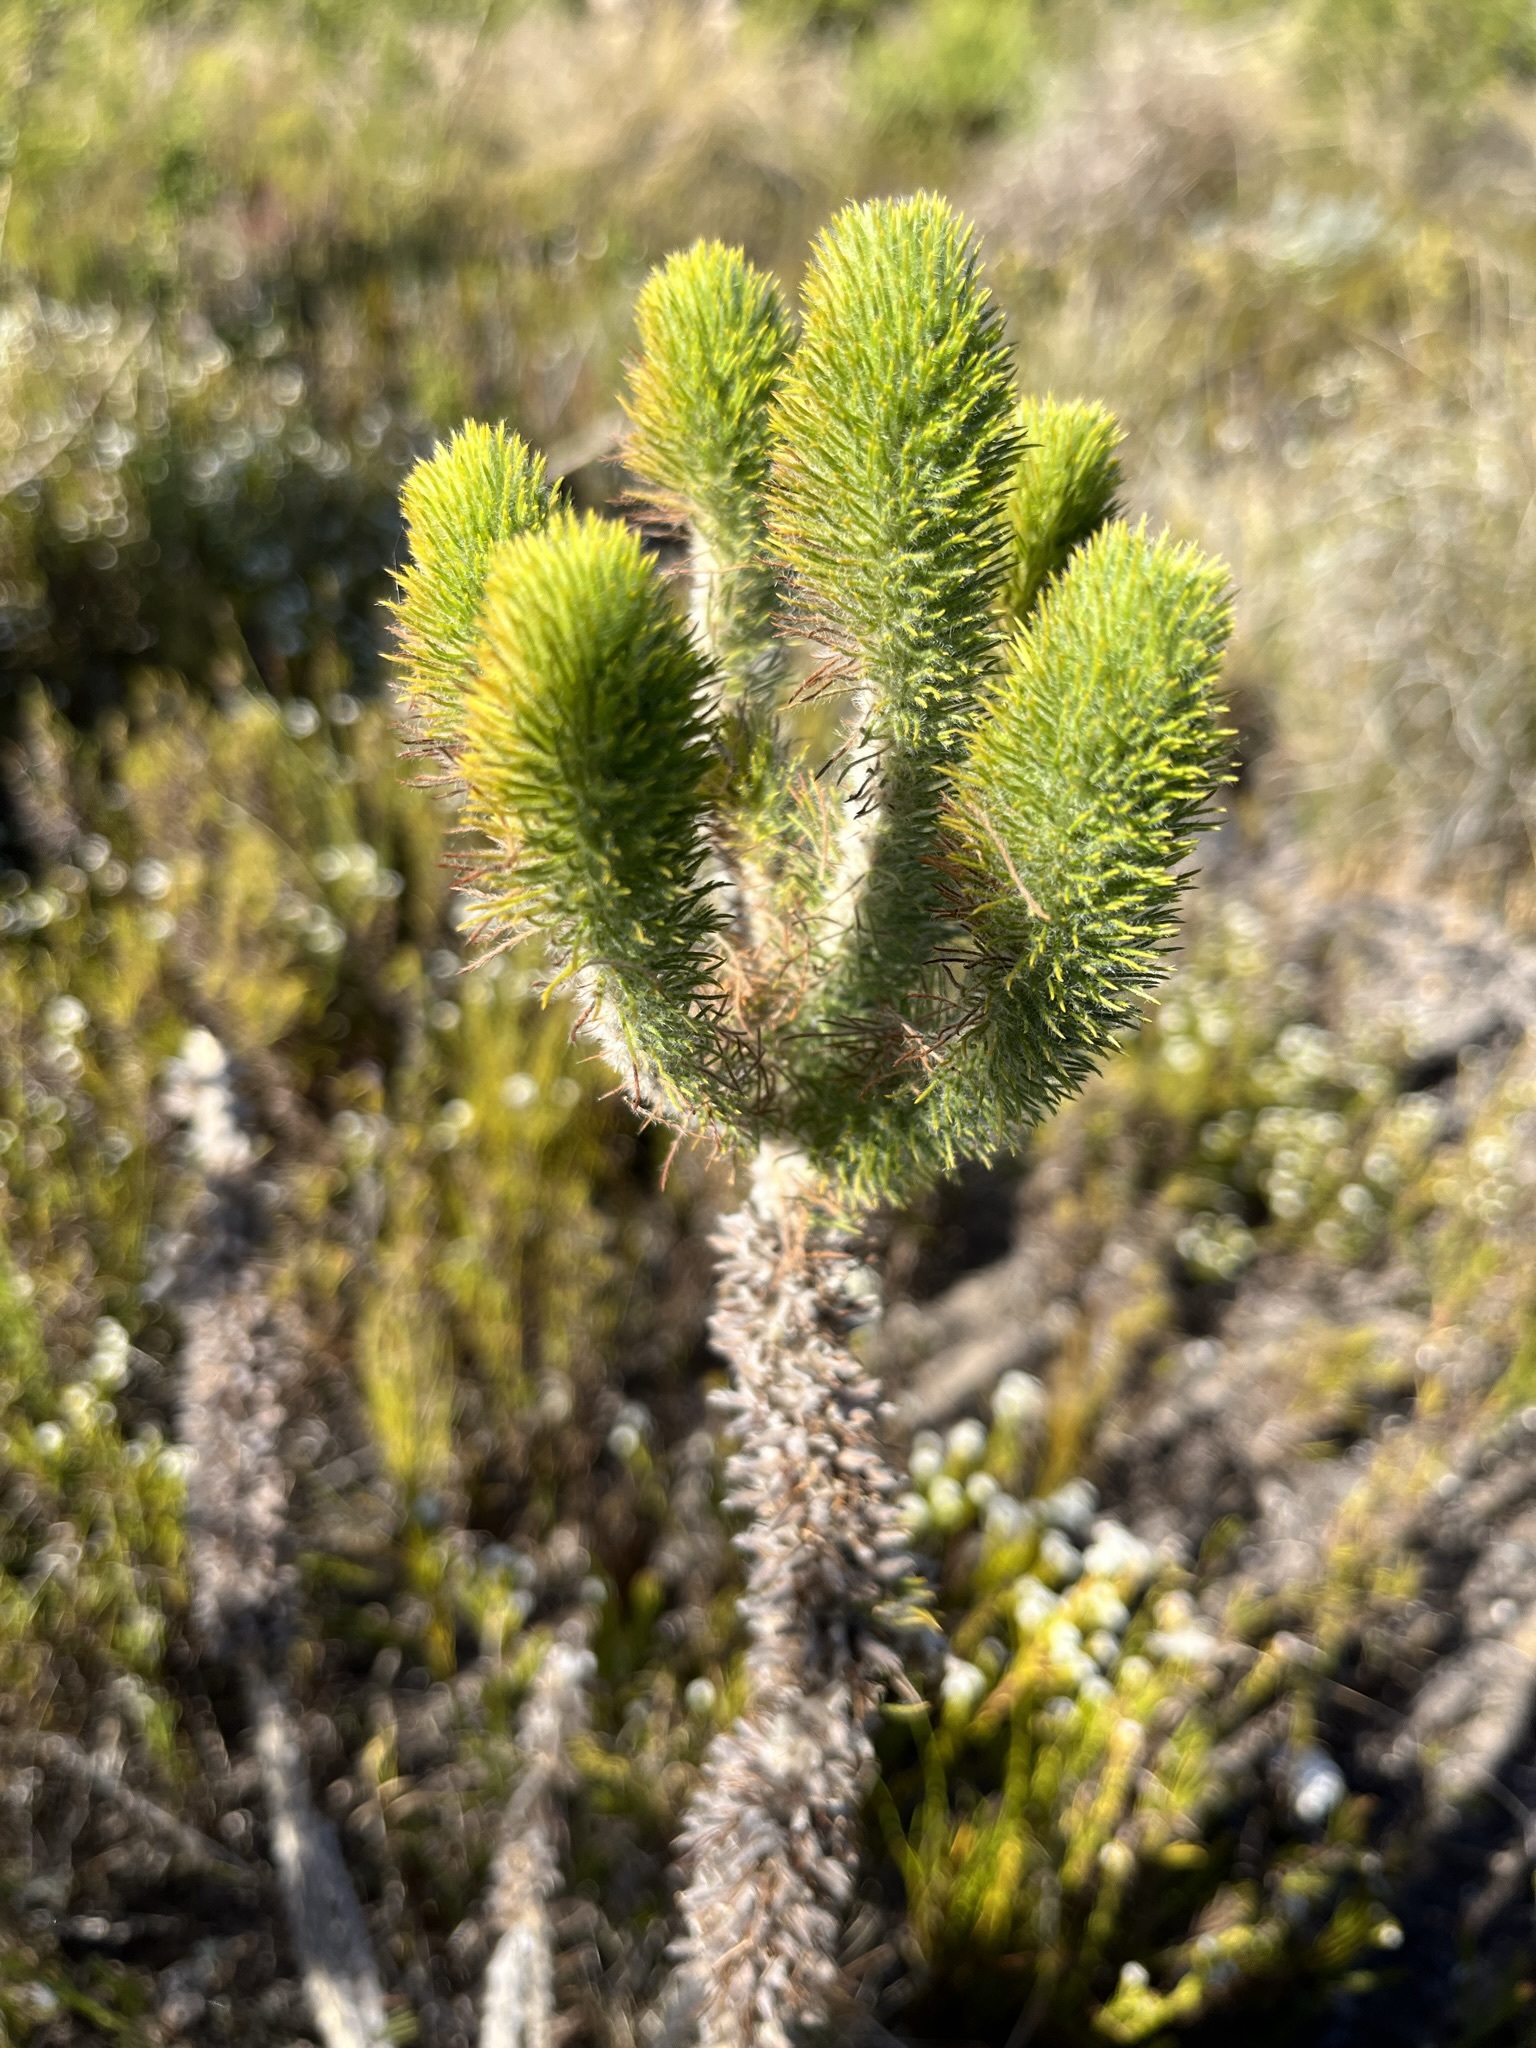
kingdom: Plantae
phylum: Tracheophyta
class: Magnoliopsida
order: Fabales
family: Fabaceae
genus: Aspalathus
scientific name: Aspalathus incurvifolia
